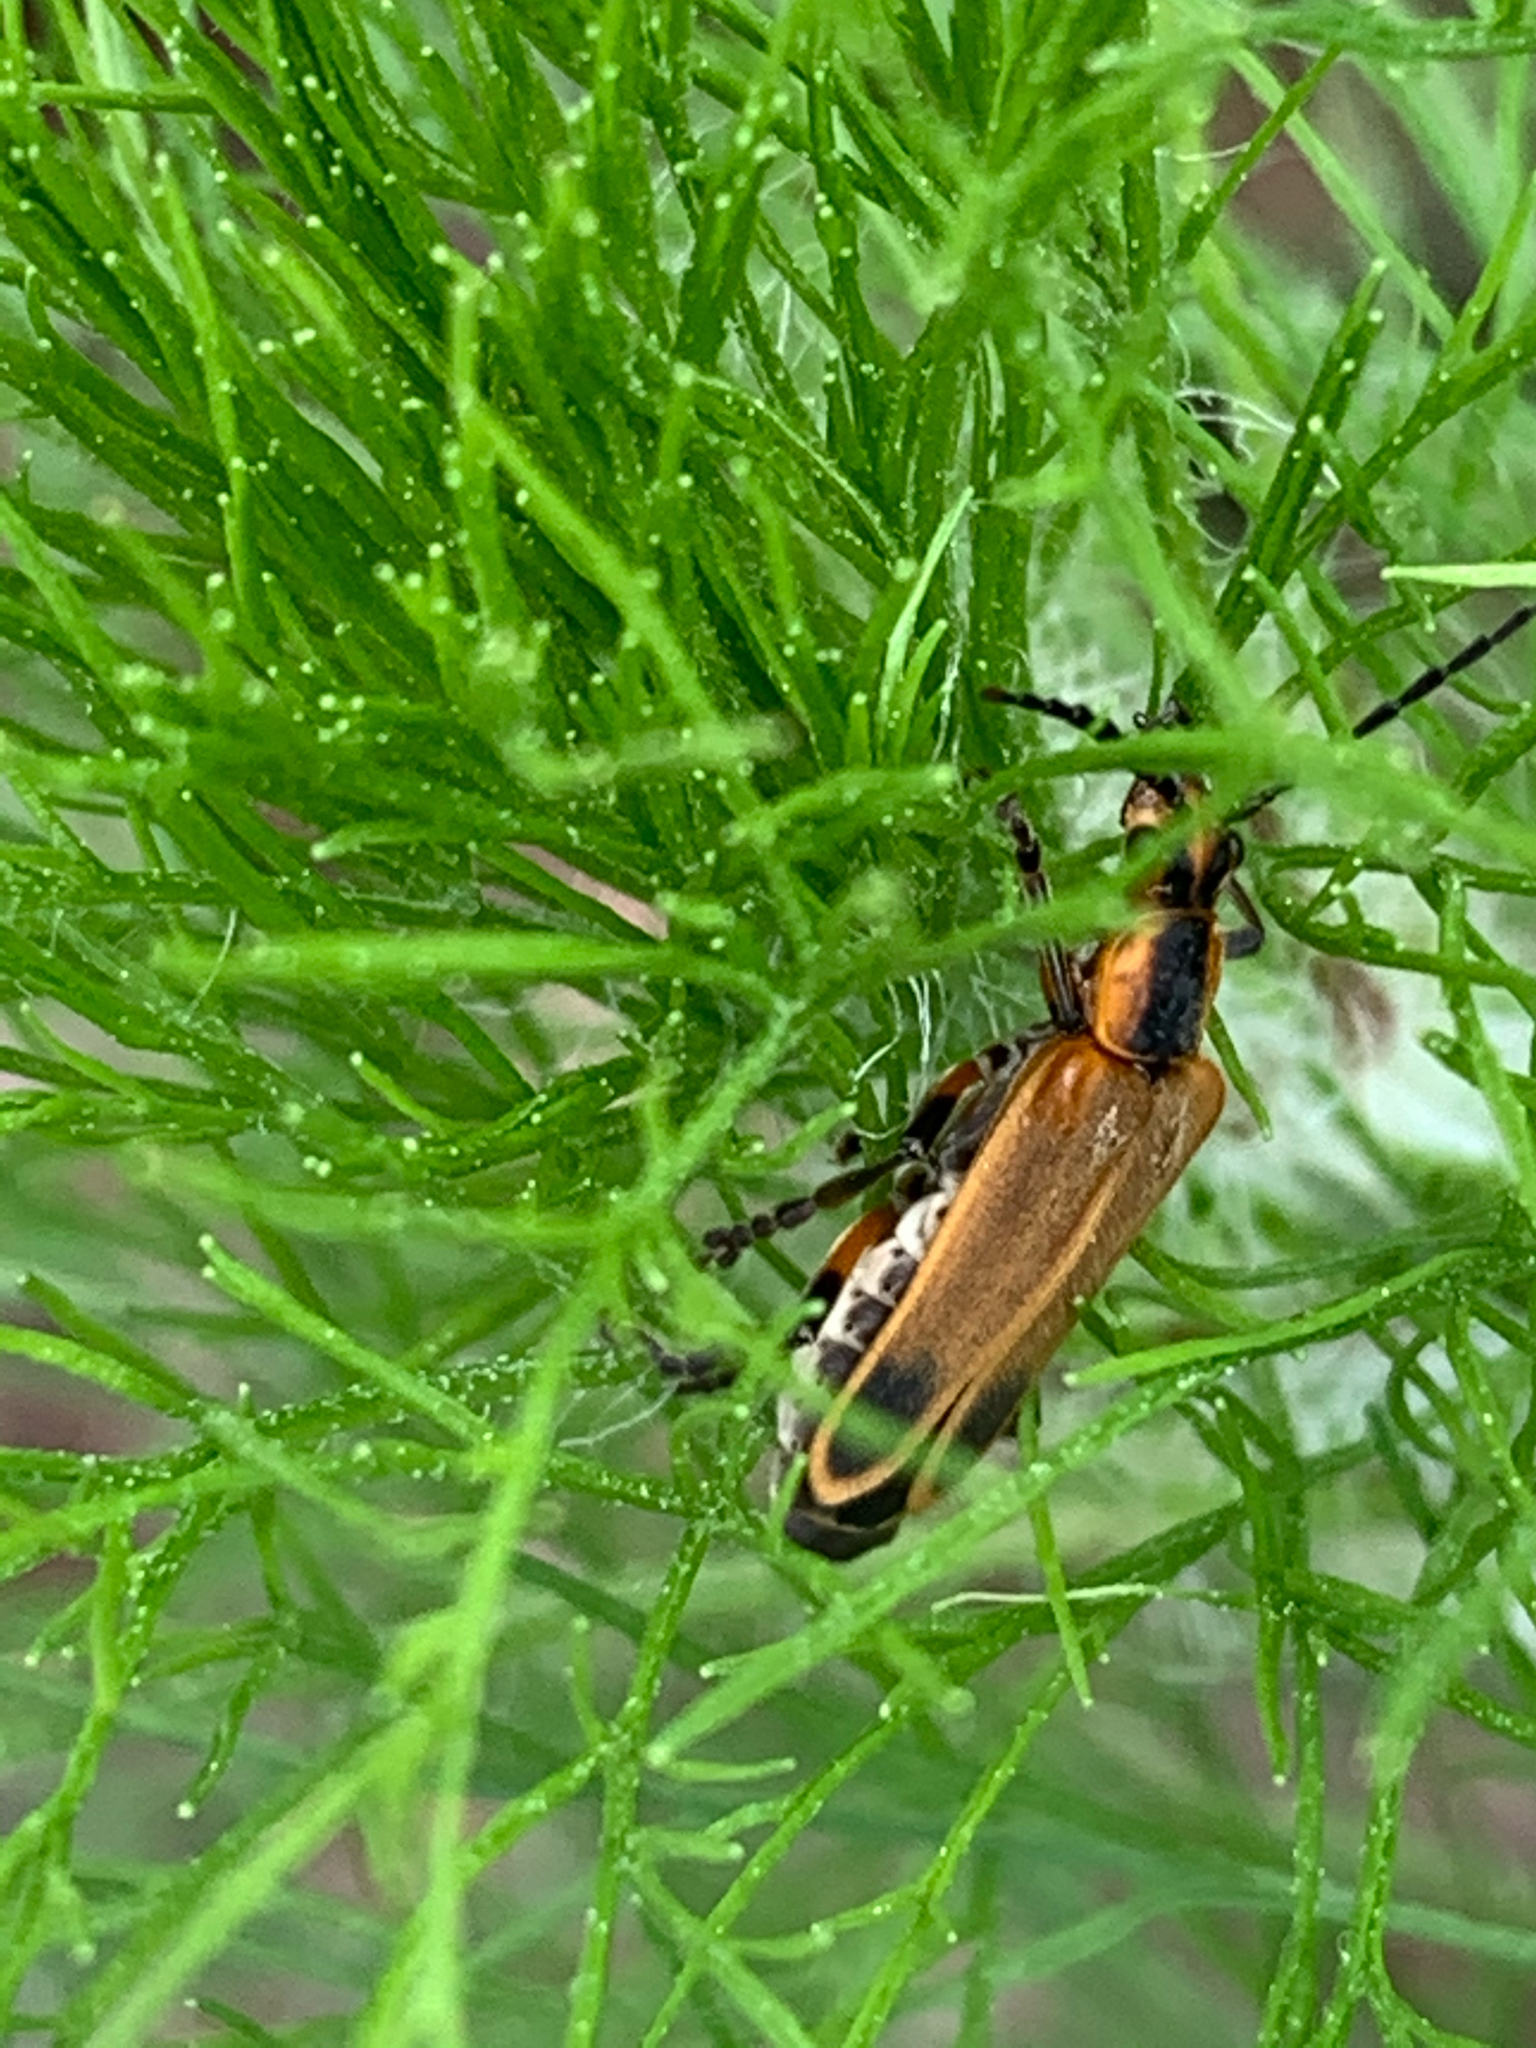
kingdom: Animalia
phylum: Arthropoda
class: Insecta
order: Coleoptera
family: Cantharidae
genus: Chauliognathus
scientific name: Chauliognathus marginatus
